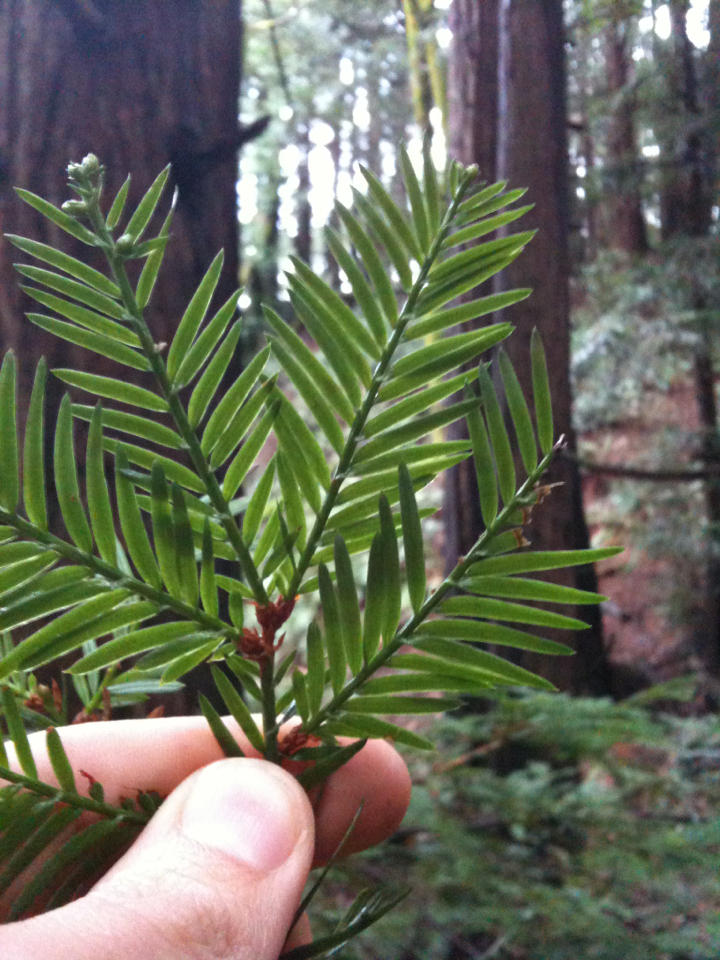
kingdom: Plantae
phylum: Tracheophyta
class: Pinopsida
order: Pinales
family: Cupressaceae
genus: Sequoia
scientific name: Sequoia sempervirens
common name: Coast redwood
